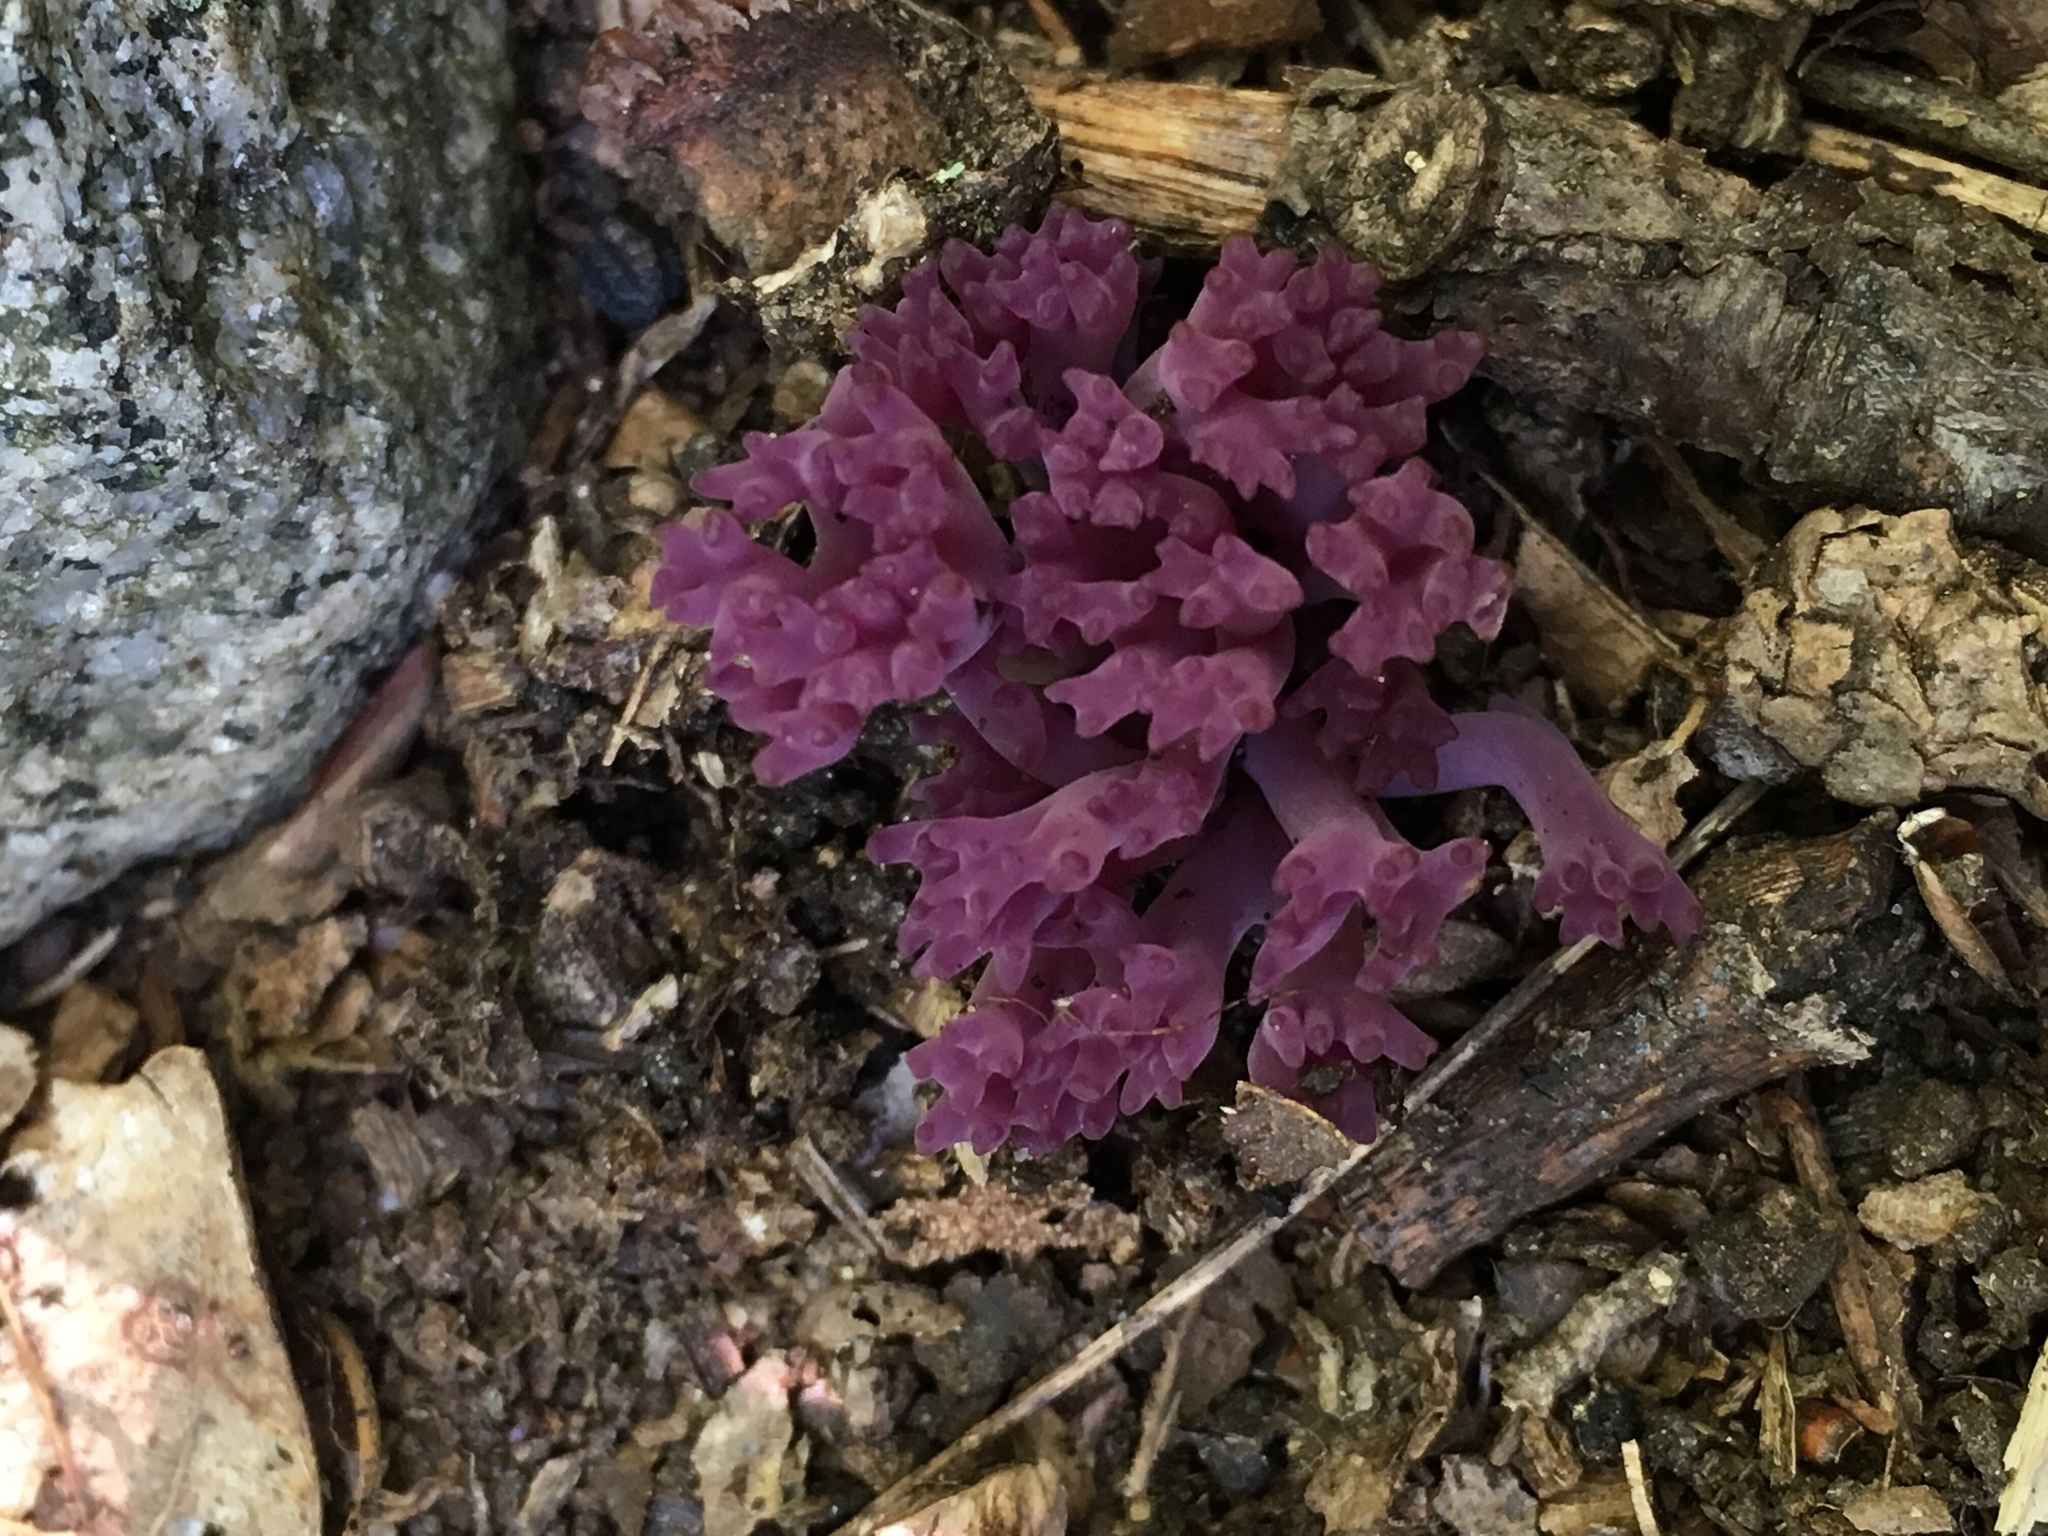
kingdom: Fungi
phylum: Basidiomycota
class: Agaricomycetes
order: Agaricales
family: Clavariaceae
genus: Clavaria
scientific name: Clavaria zollingeri
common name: Violet coral
